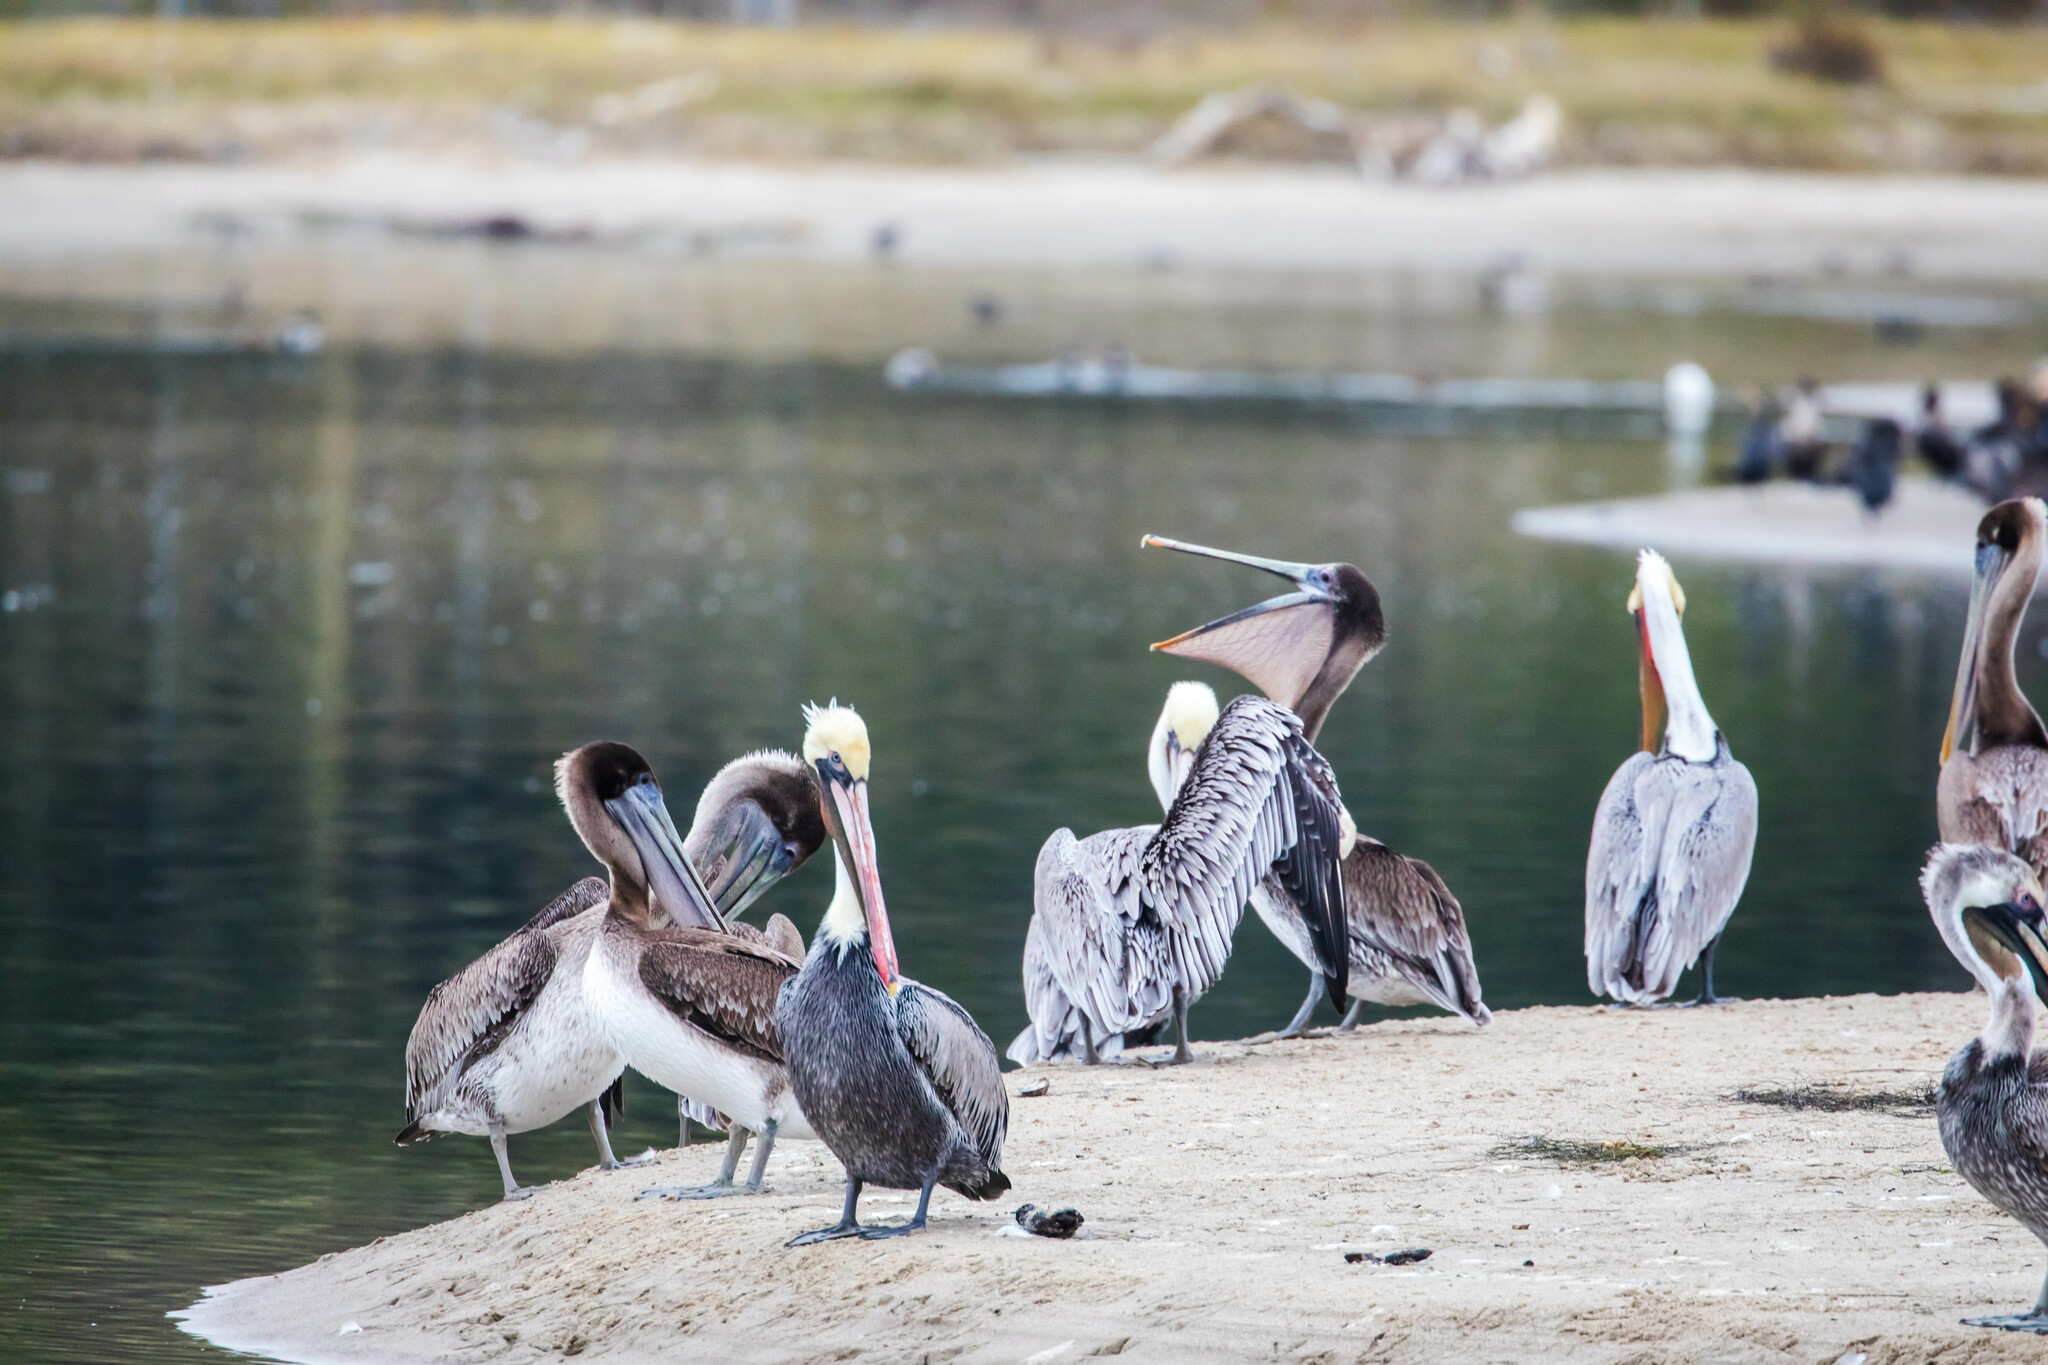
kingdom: Animalia
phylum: Chordata
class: Aves
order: Pelecaniformes
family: Pelecanidae
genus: Pelecanus
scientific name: Pelecanus occidentalis
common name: Brown pelican
